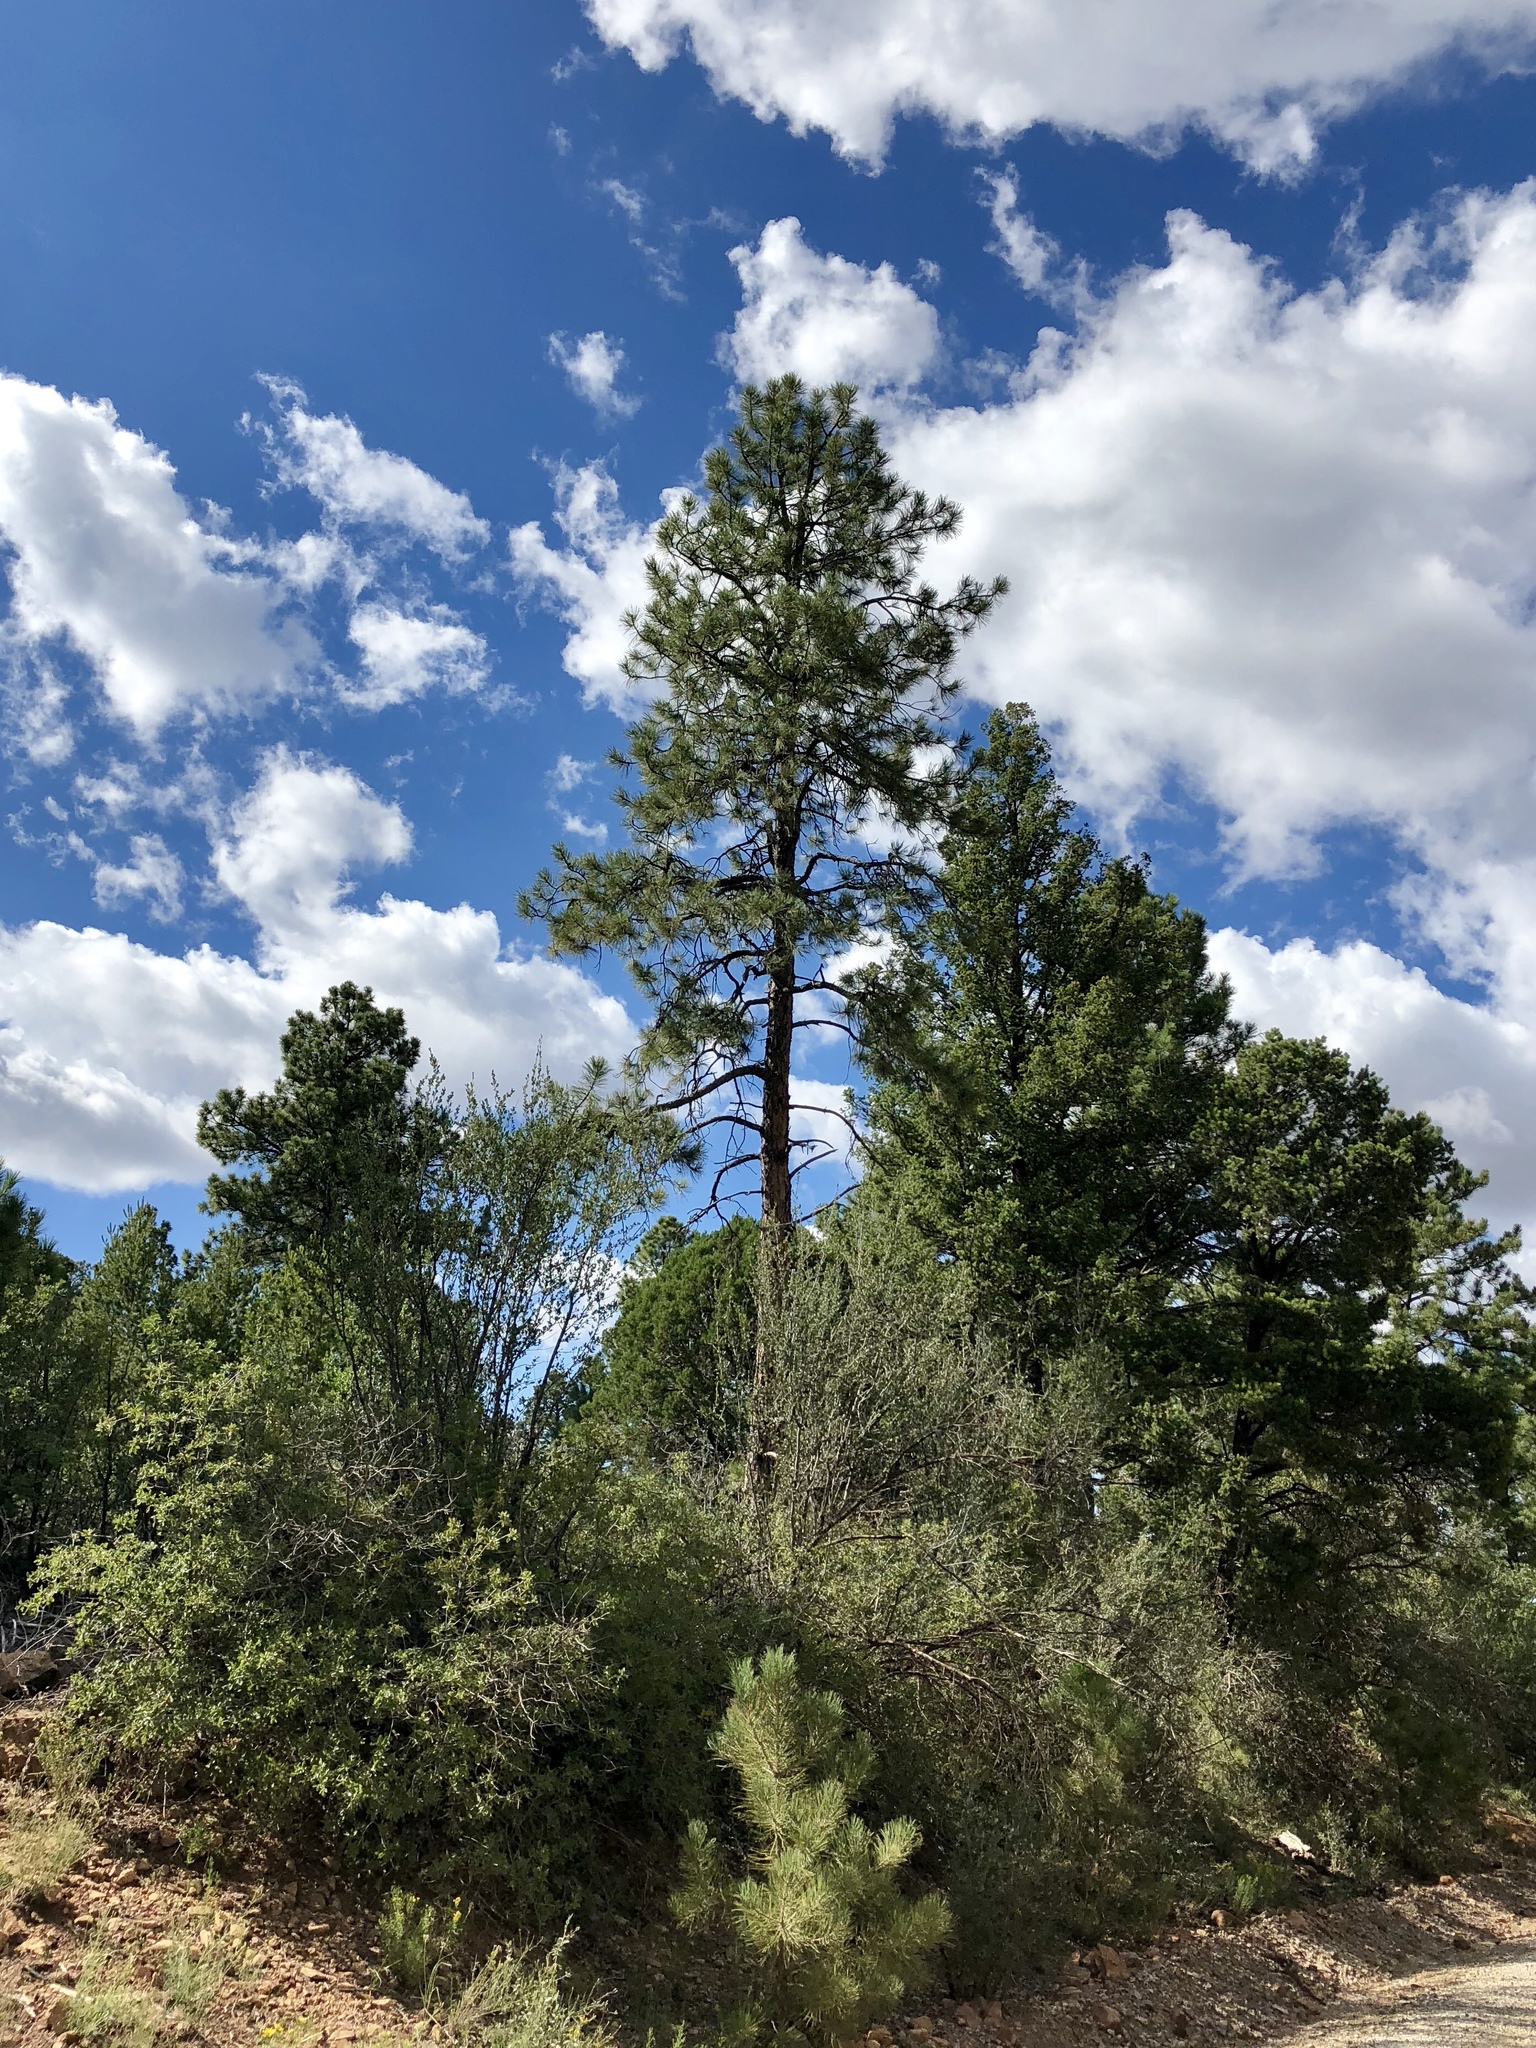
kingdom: Plantae
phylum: Tracheophyta
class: Pinopsida
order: Pinales
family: Pinaceae
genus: Pinus
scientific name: Pinus ponderosa
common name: Western yellow-pine
